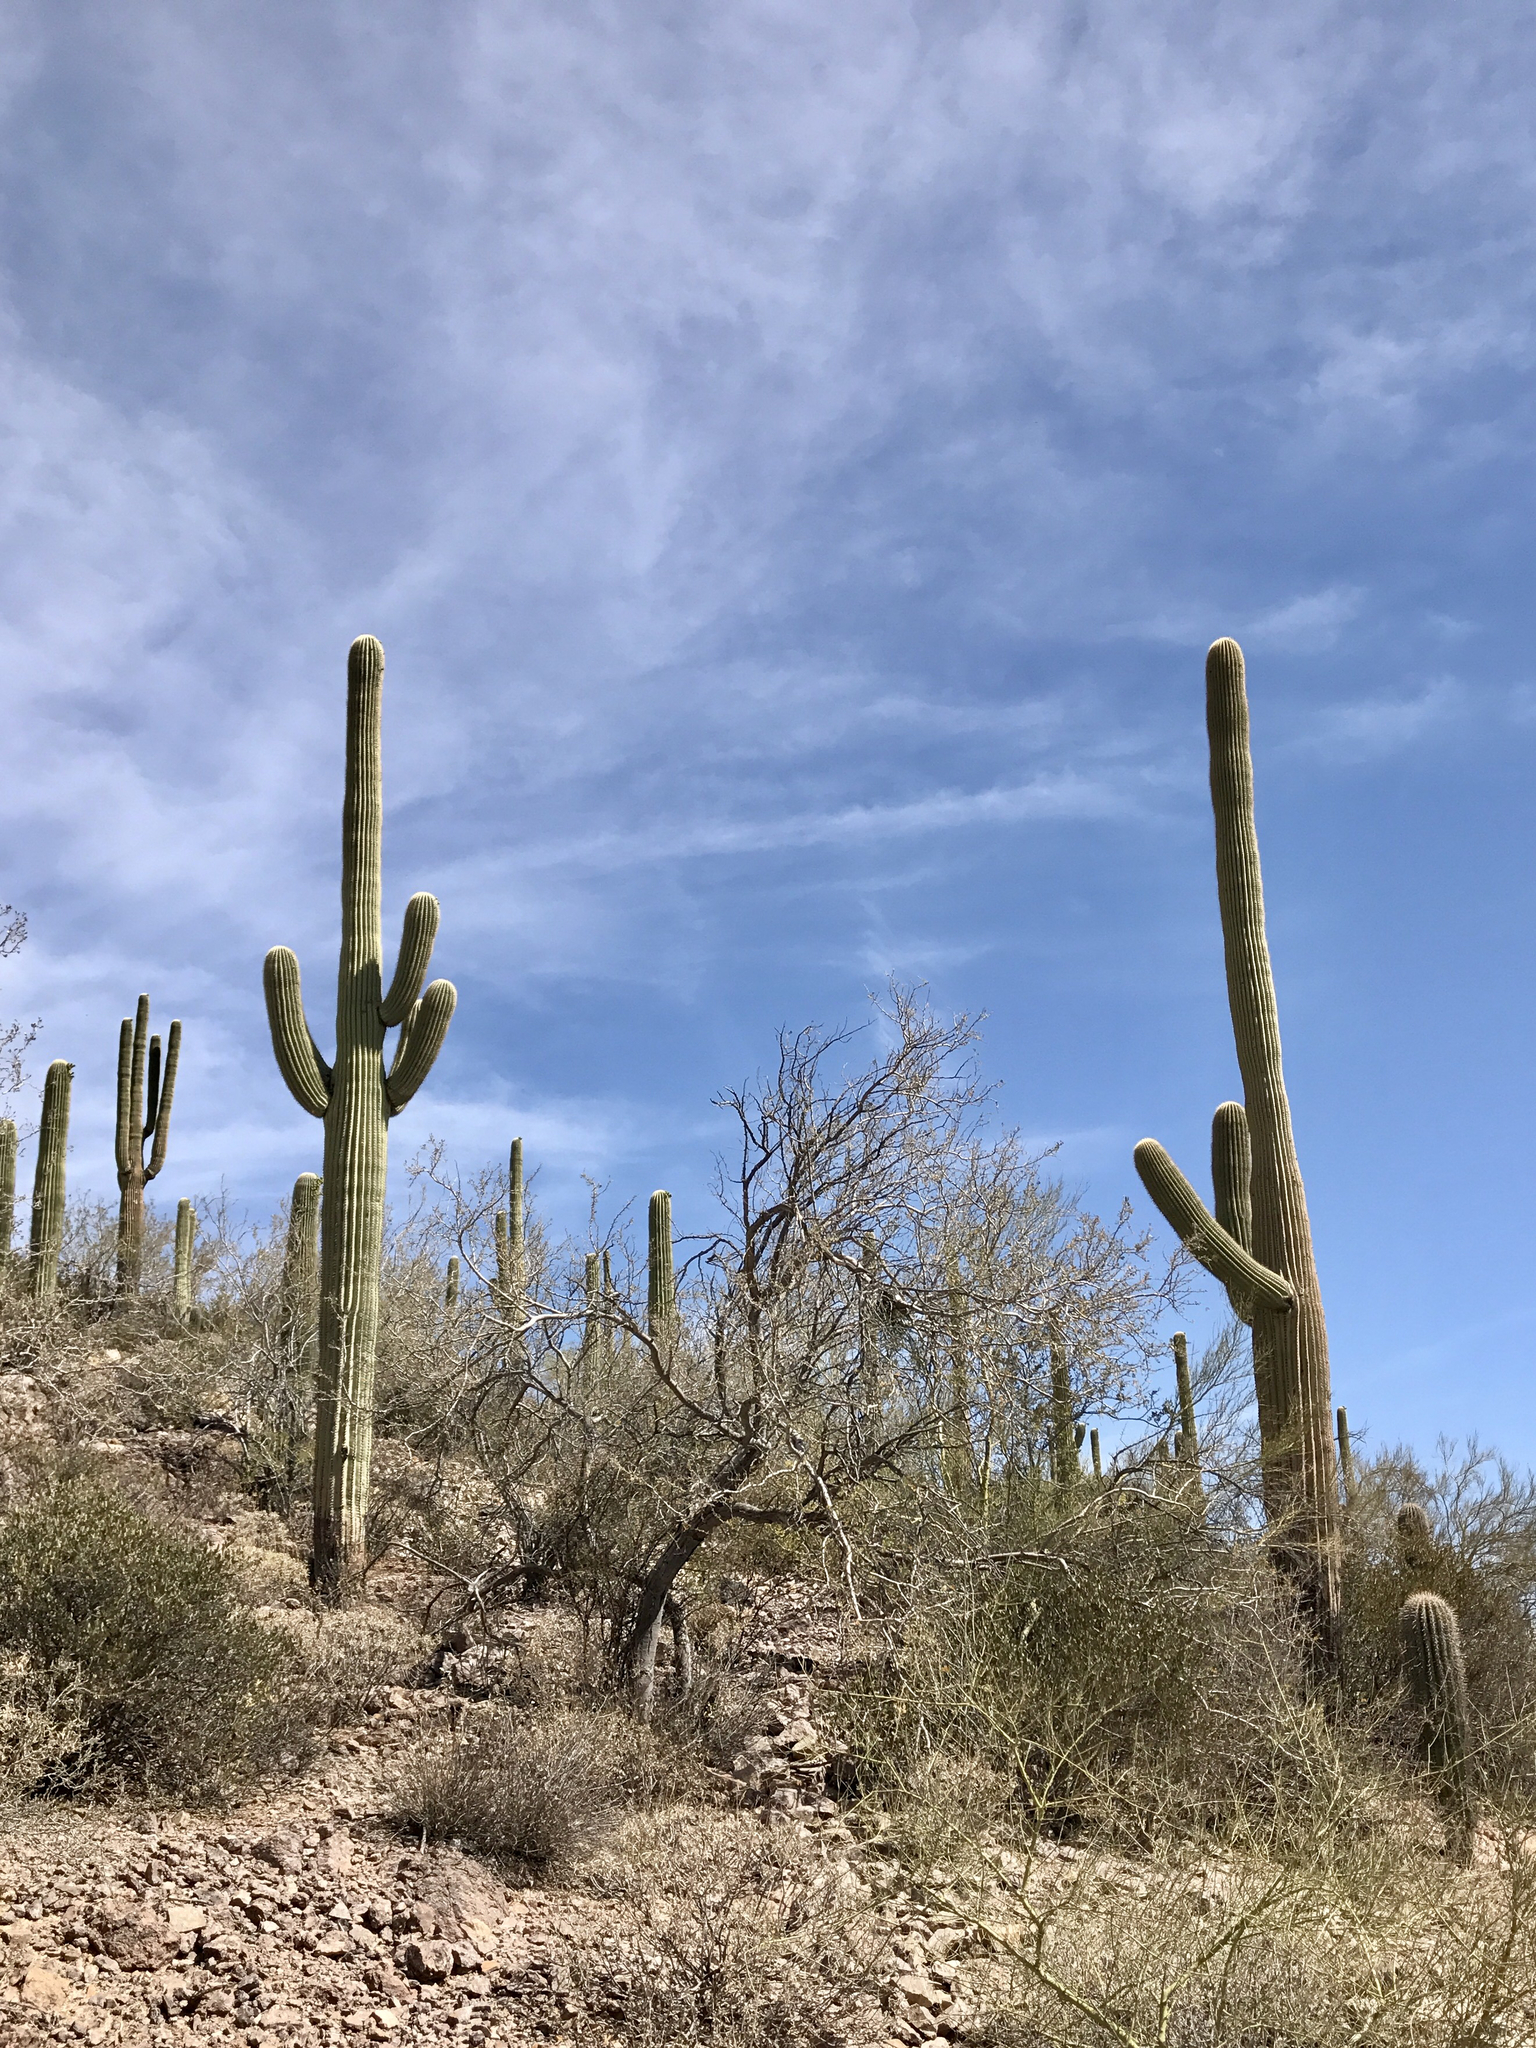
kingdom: Plantae
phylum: Tracheophyta
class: Magnoliopsida
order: Caryophyllales
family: Cactaceae
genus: Carnegiea
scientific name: Carnegiea gigantea
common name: Saguaro
